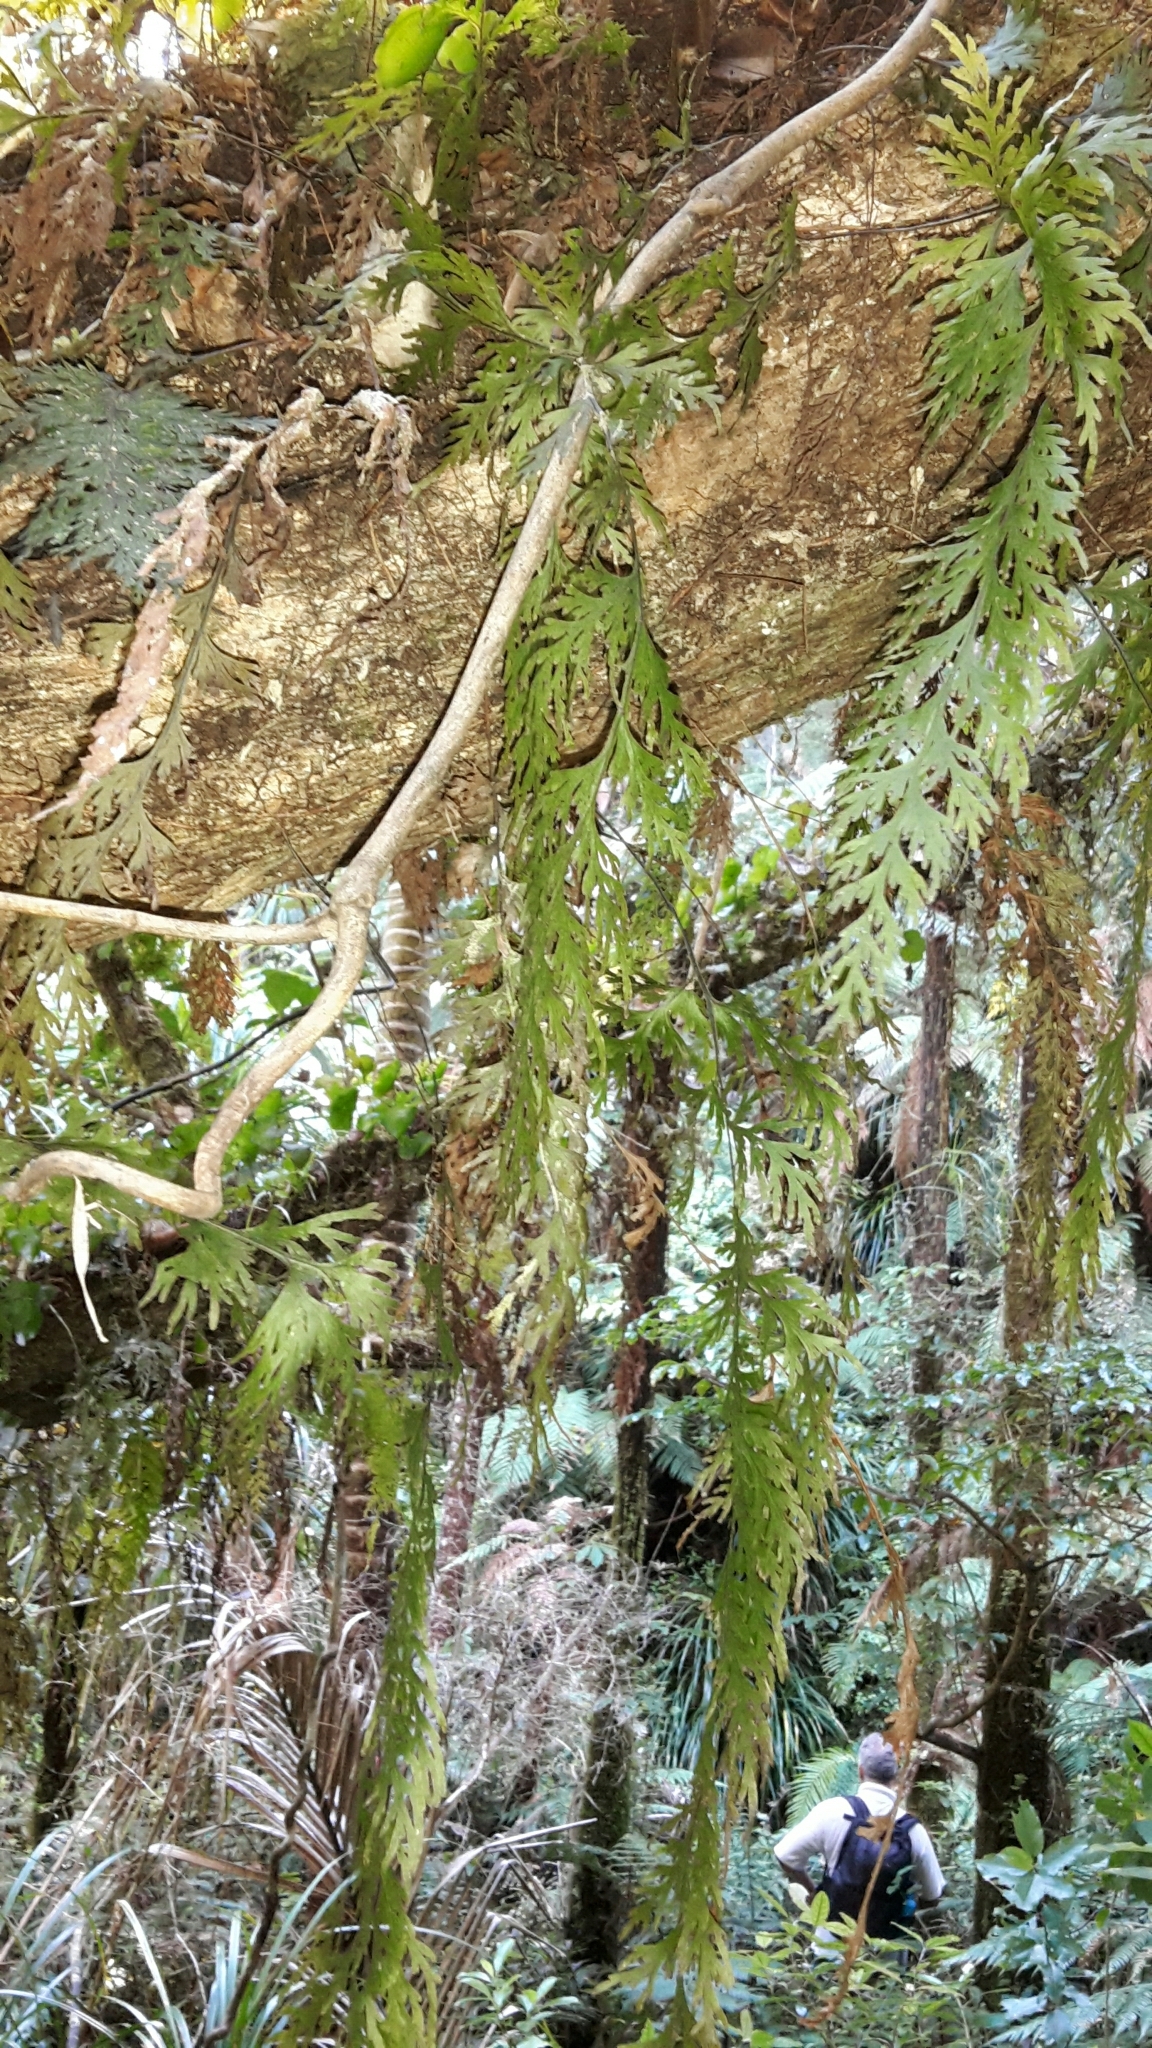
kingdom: Plantae
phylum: Tracheophyta
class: Polypodiopsida
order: Hymenophyllales
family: Hymenophyllaceae
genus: Hymenophyllum
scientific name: Hymenophyllum dilatatum
